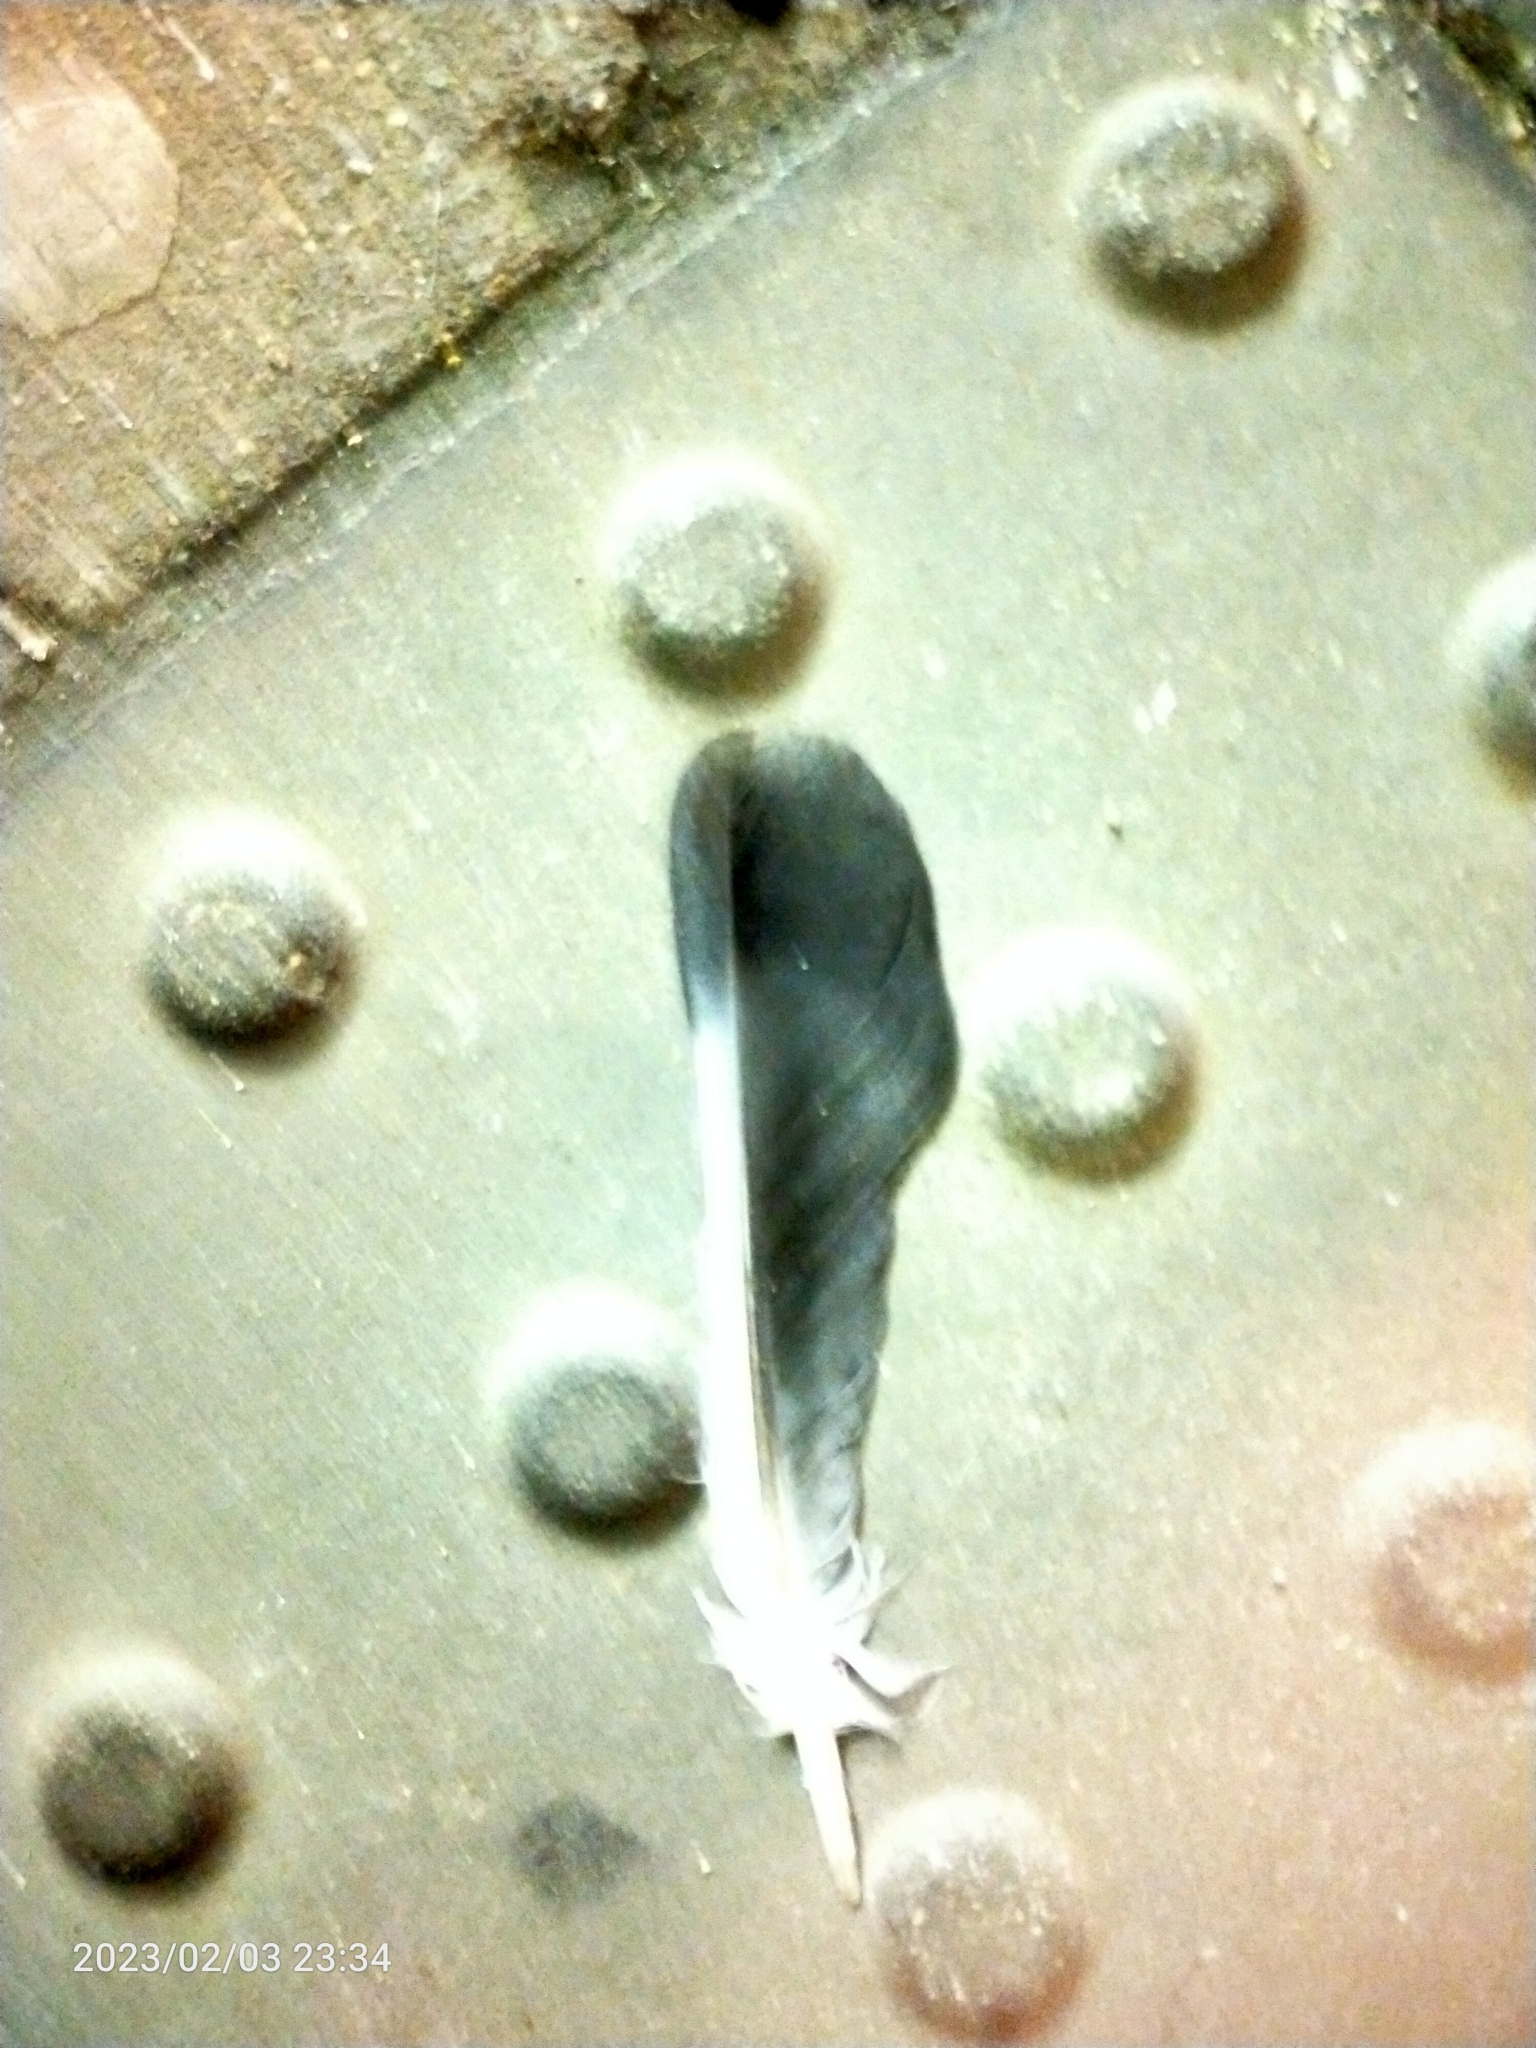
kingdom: Animalia
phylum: Chordata
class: Aves
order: Columbiformes
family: Columbidae
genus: Columba
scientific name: Columba livia
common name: Rock pigeon
